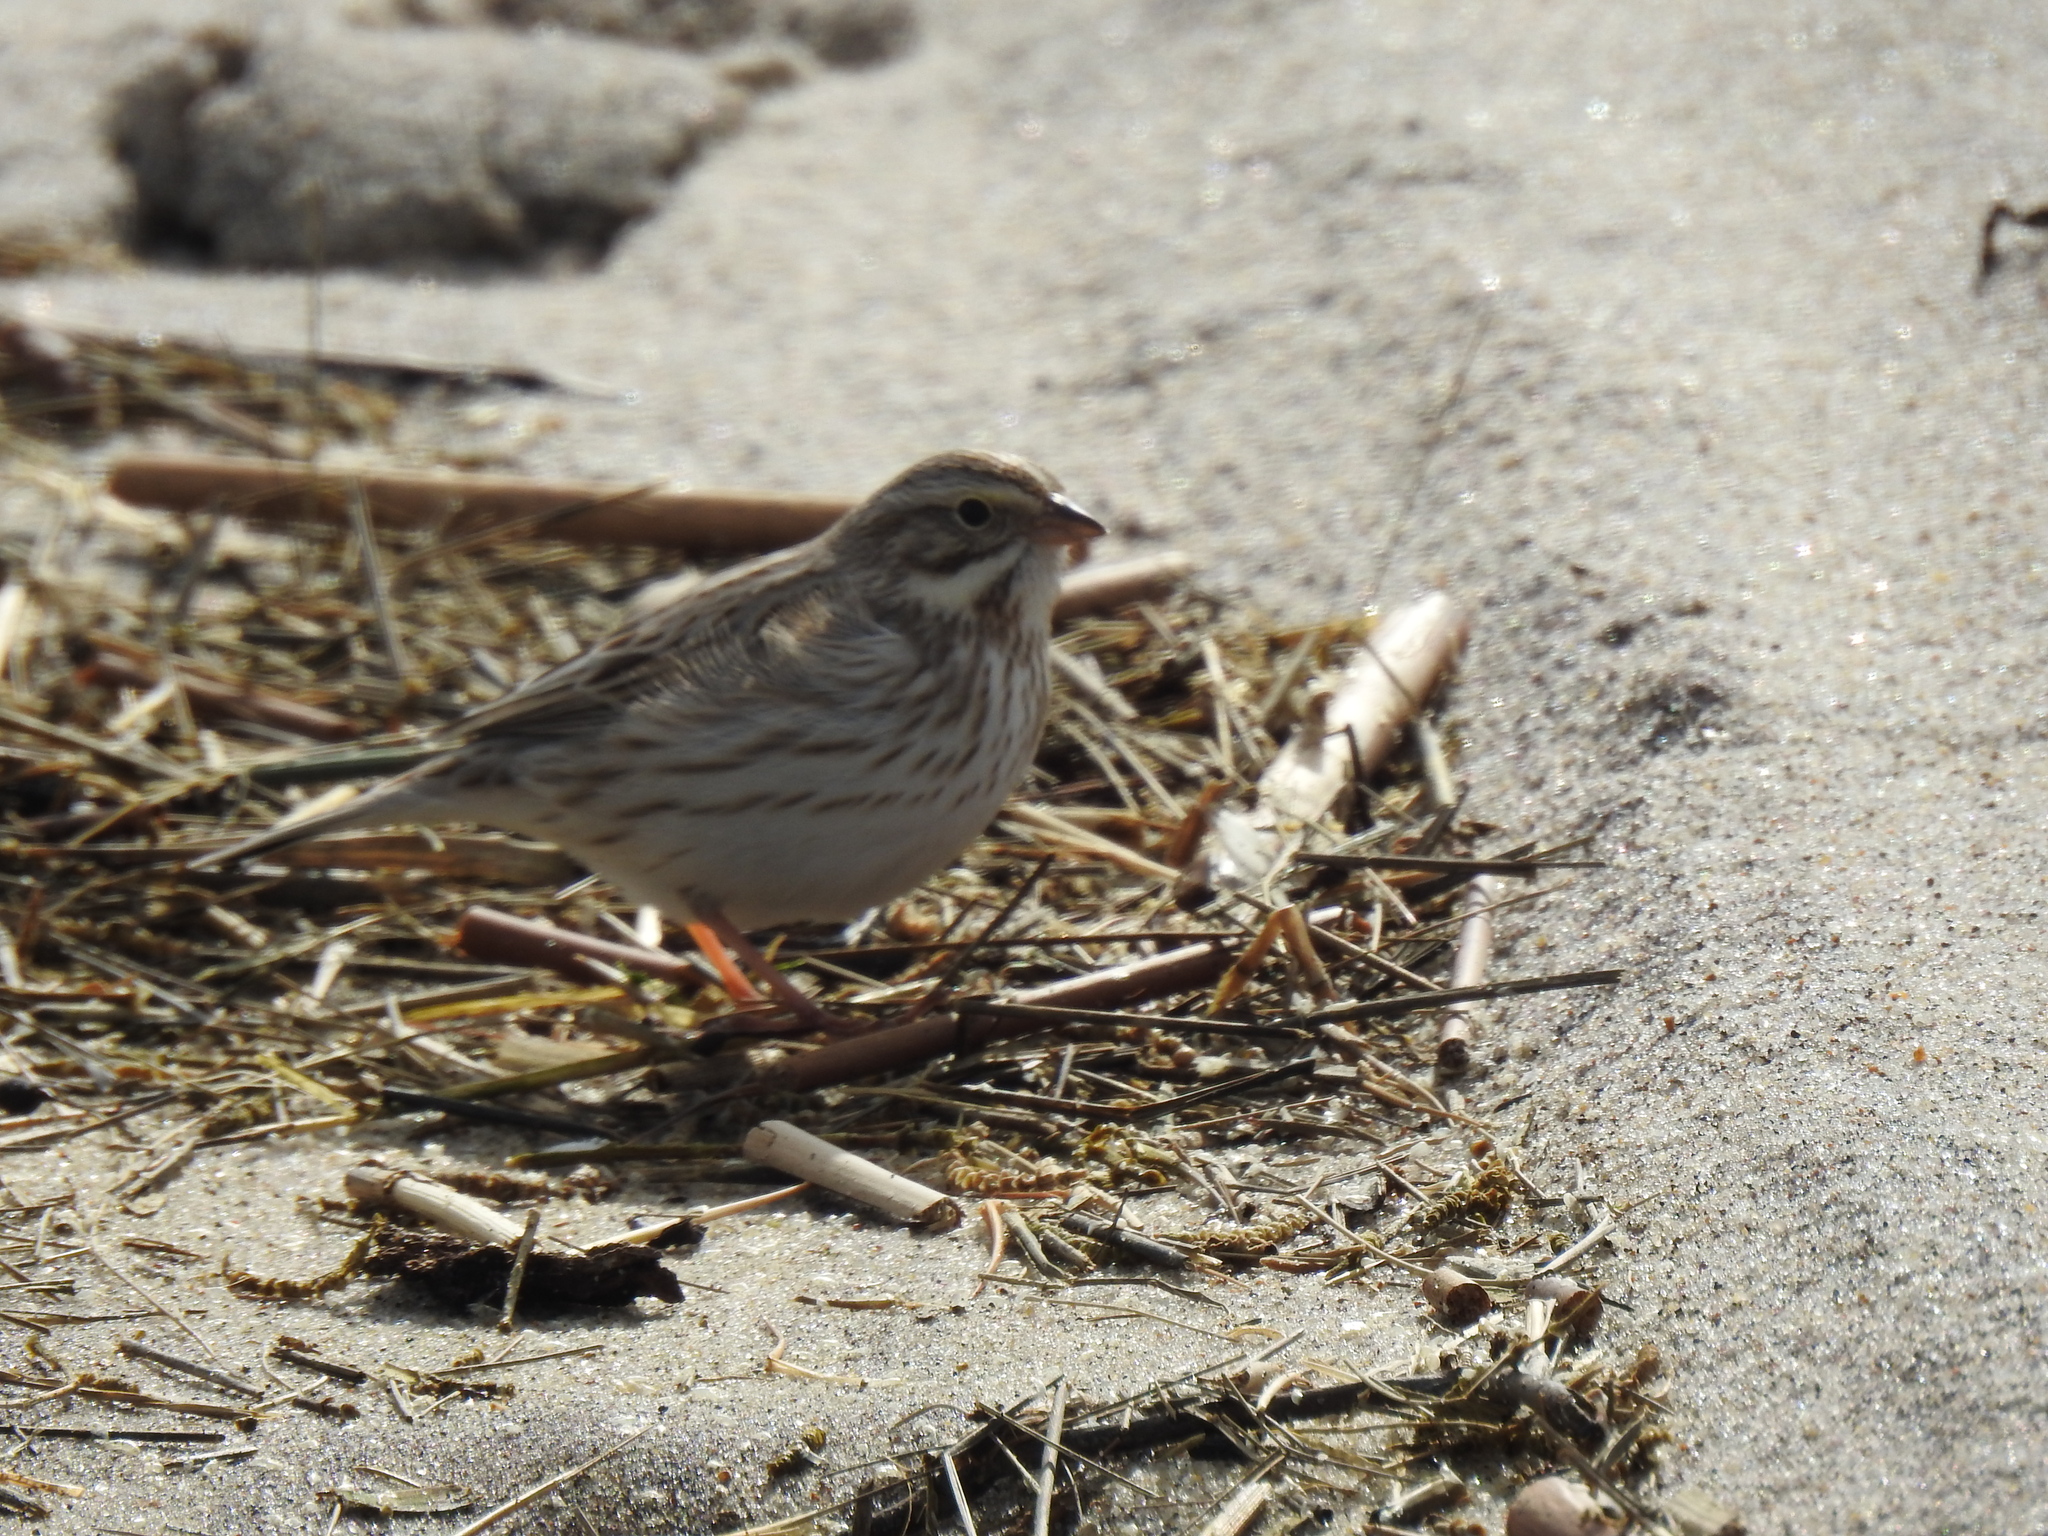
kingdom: Animalia
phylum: Chordata
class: Aves
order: Passeriformes
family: Passerellidae
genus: Passerculus
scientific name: Passerculus sandwichensis
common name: Savannah sparrow
